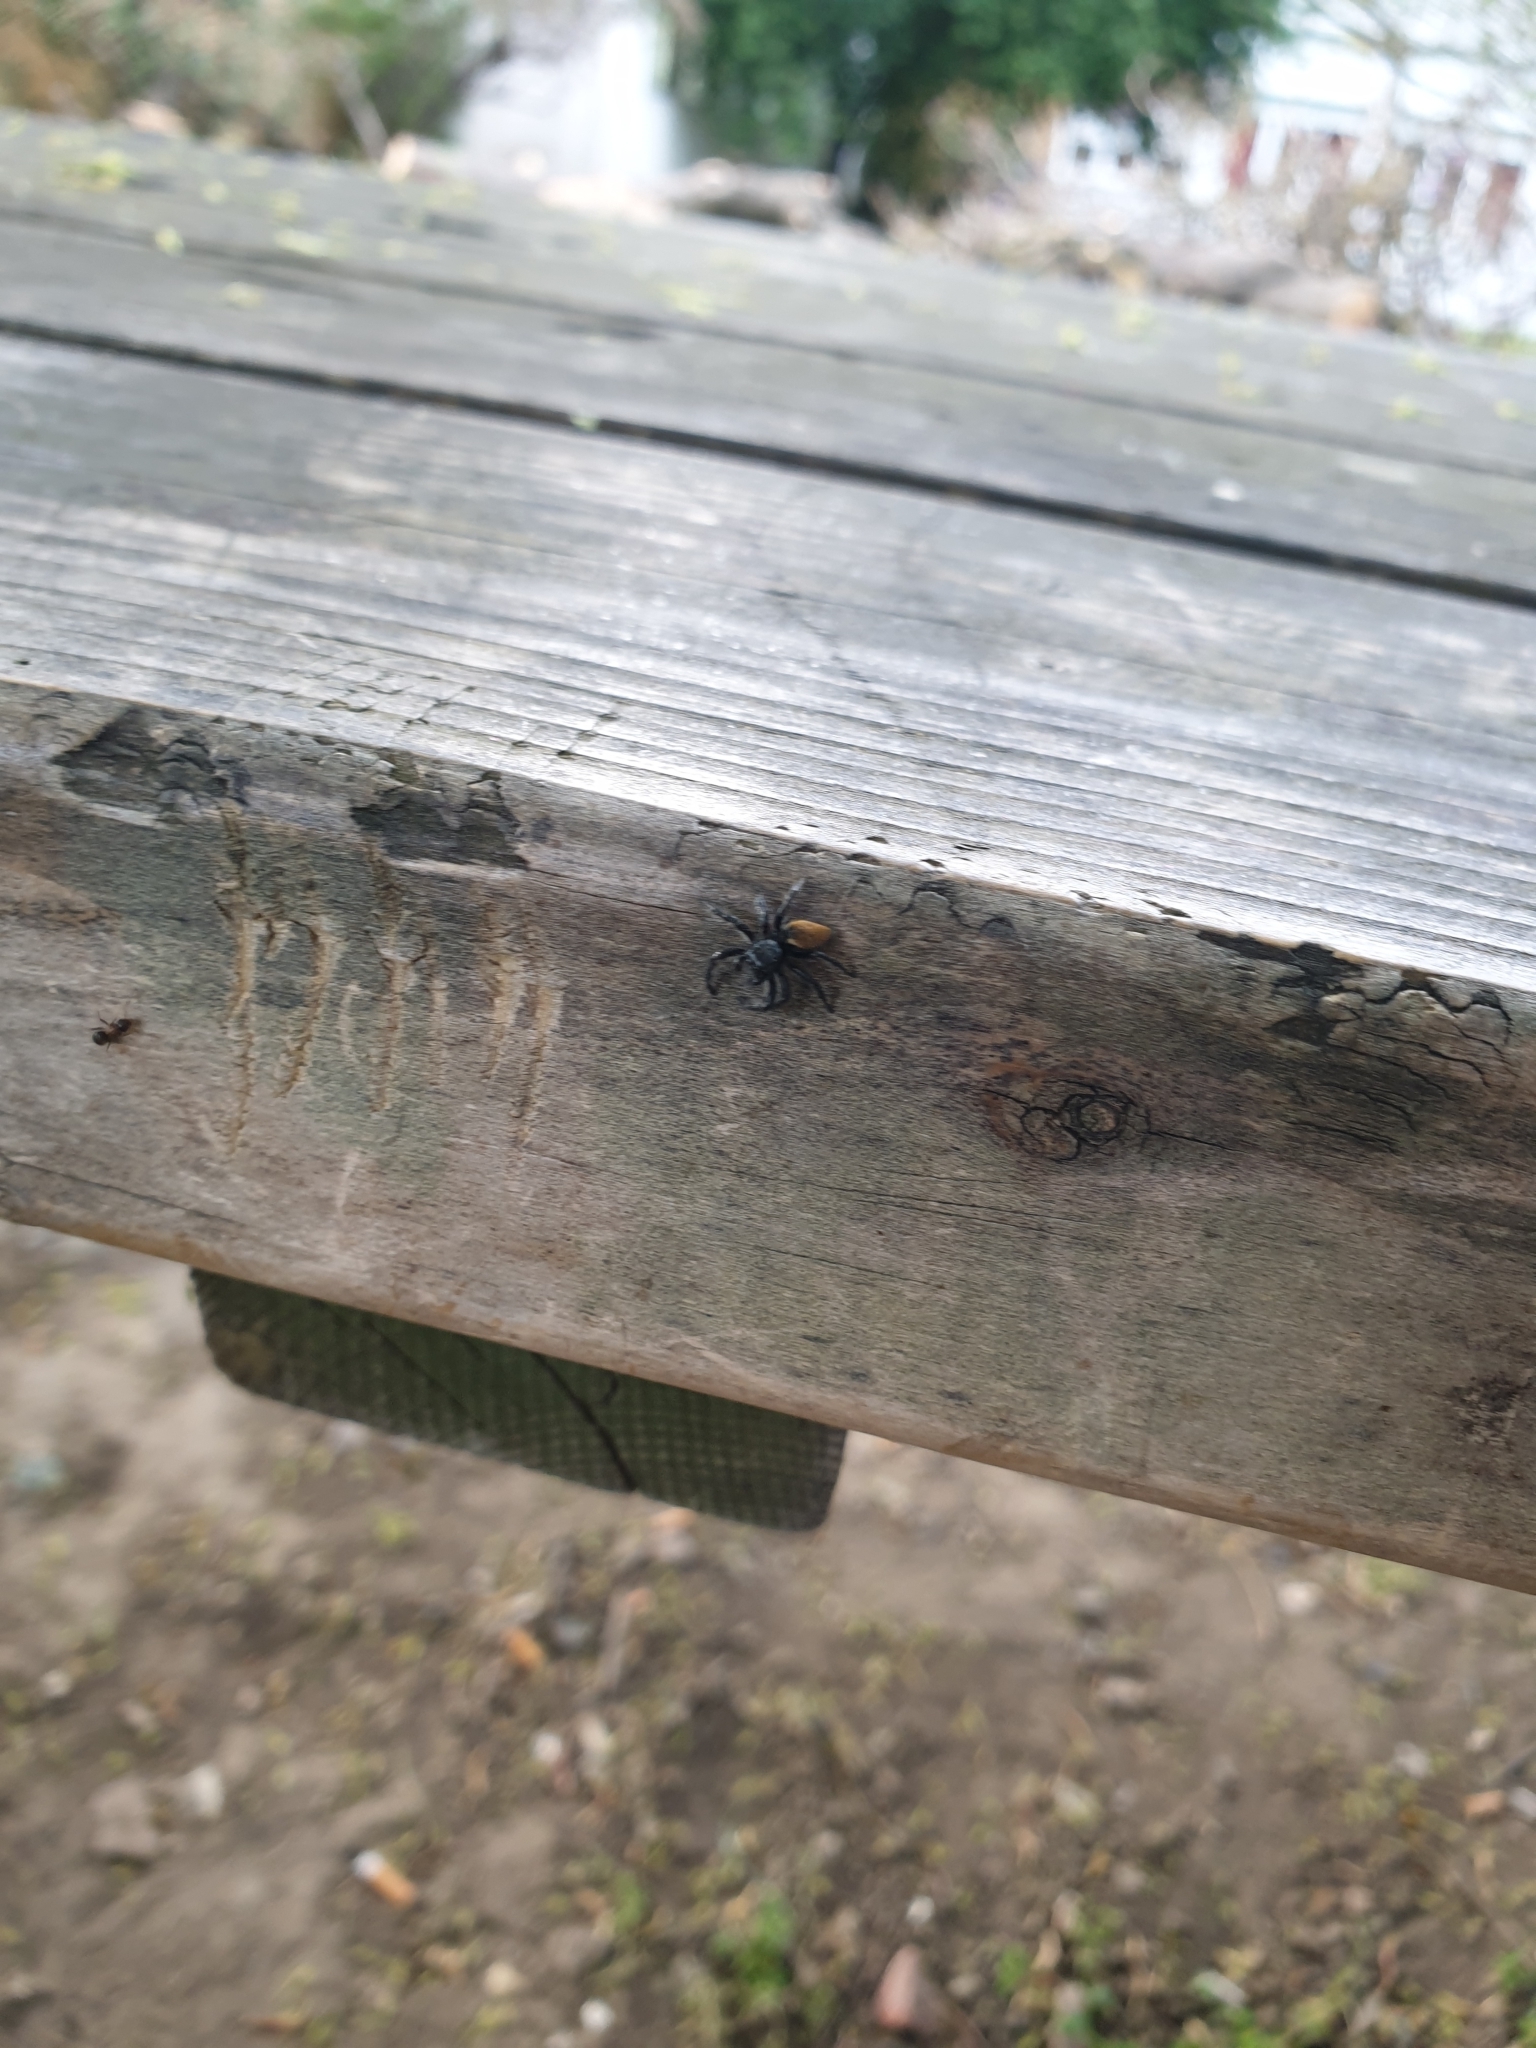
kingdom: Animalia
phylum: Arthropoda
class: Arachnida
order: Araneae
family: Salticidae
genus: Carrhotus
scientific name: Carrhotus xanthogramma
